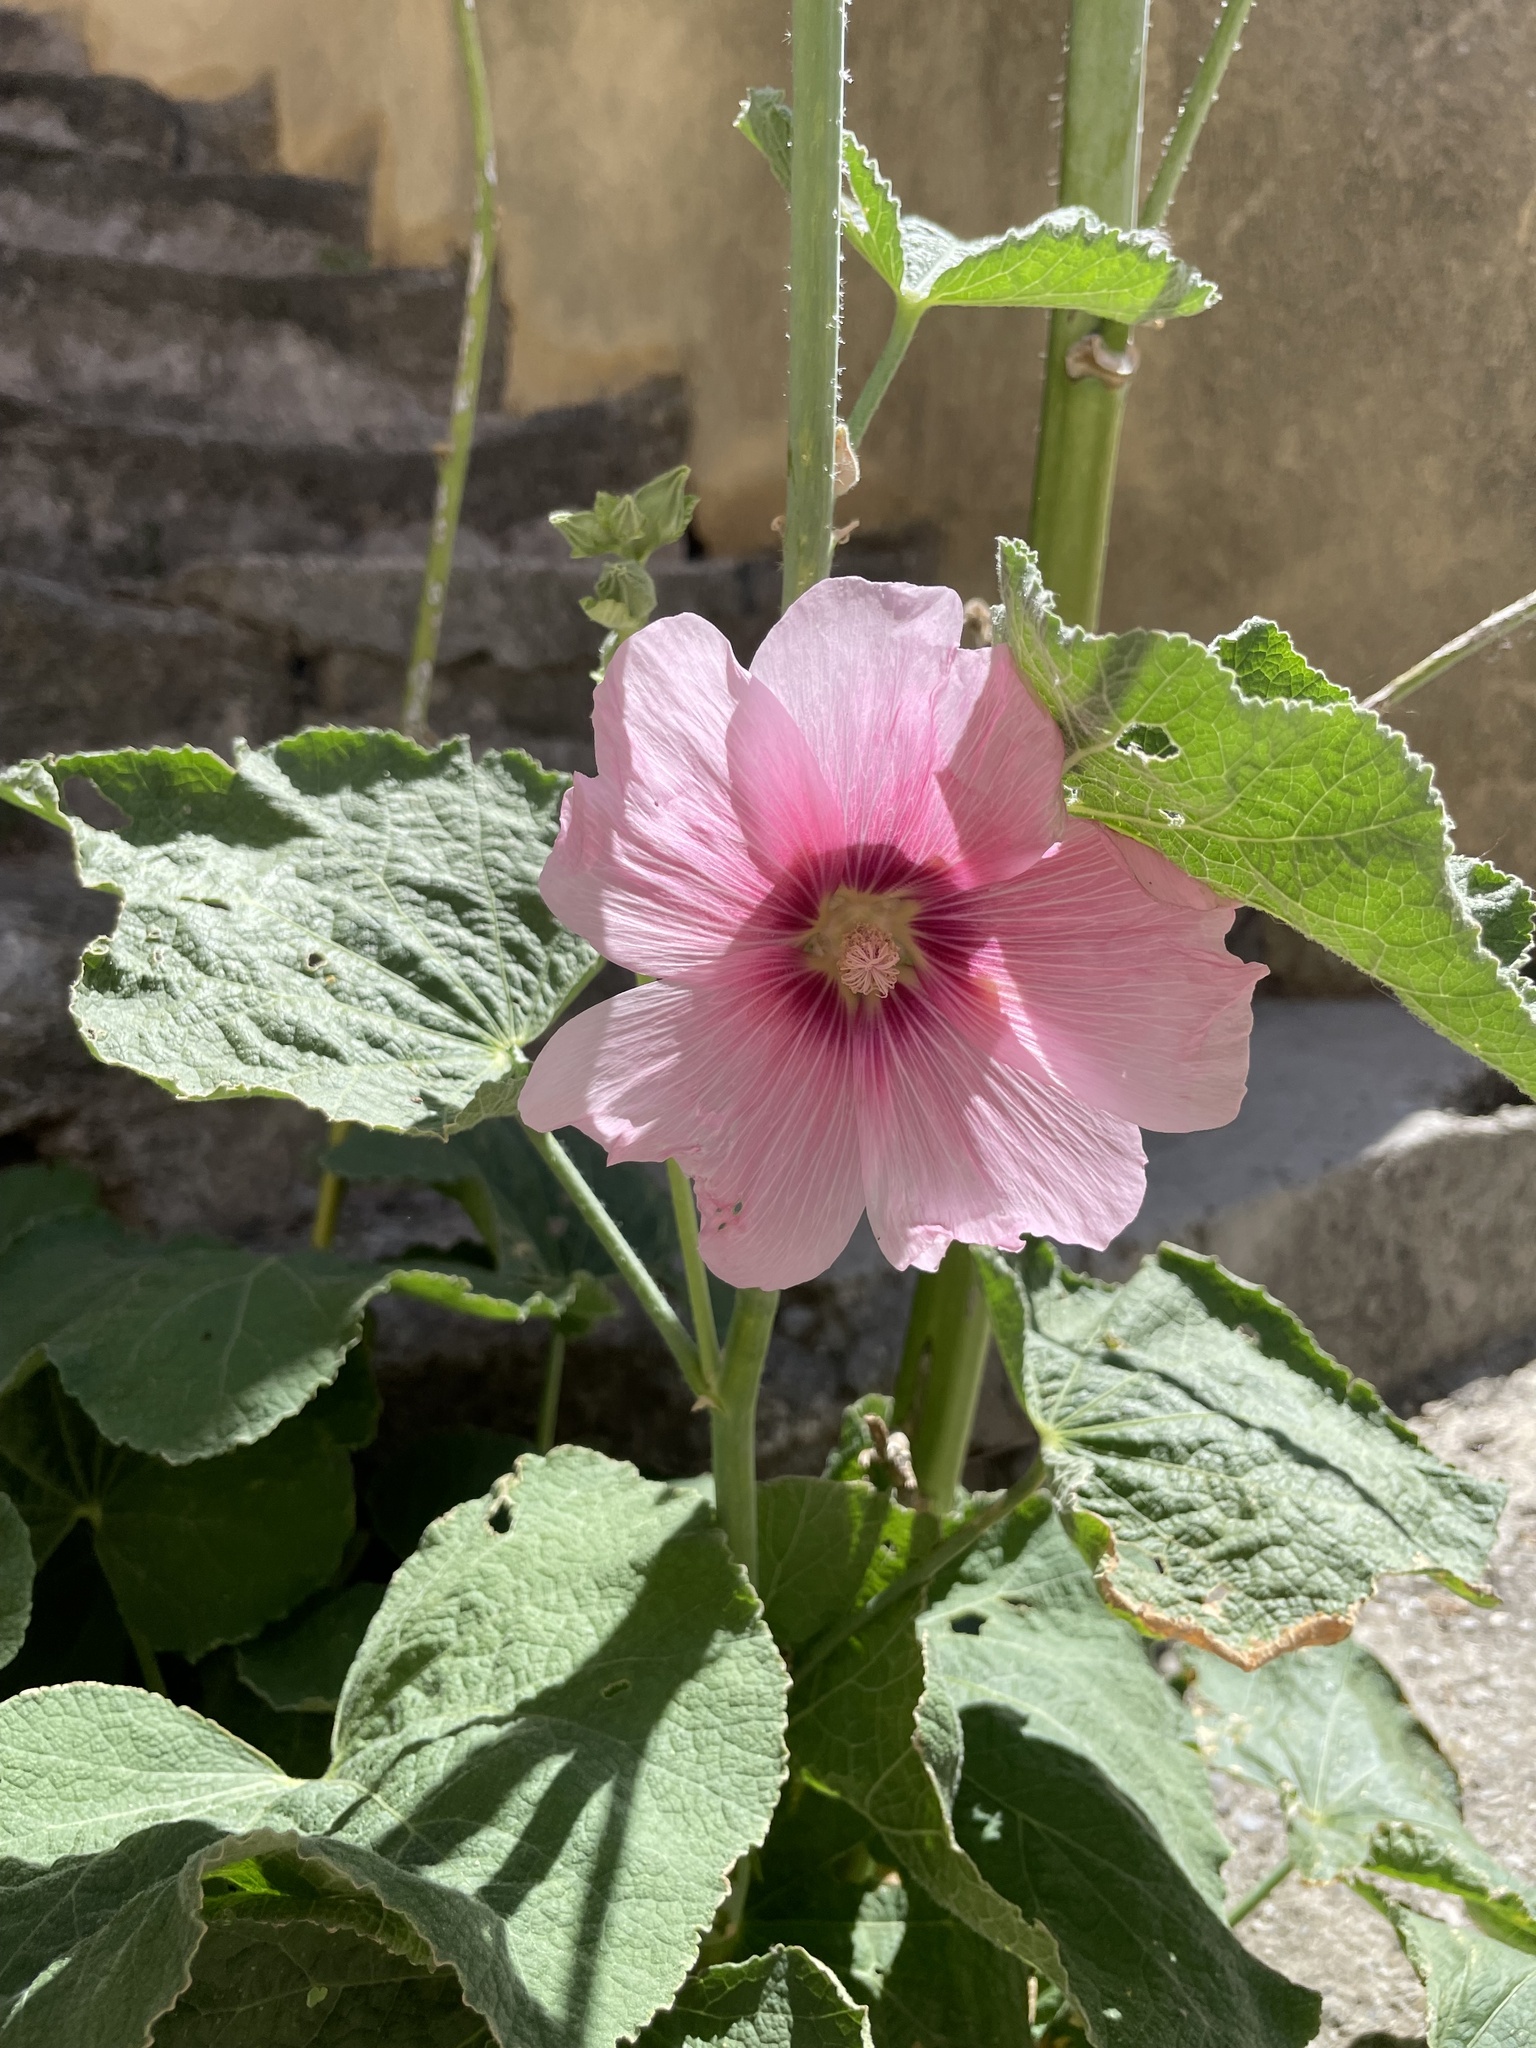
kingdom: Plantae
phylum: Tracheophyta
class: Magnoliopsida
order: Malvales
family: Malvaceae
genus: Alcea
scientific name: Alcea rosea
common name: Hollyhock
